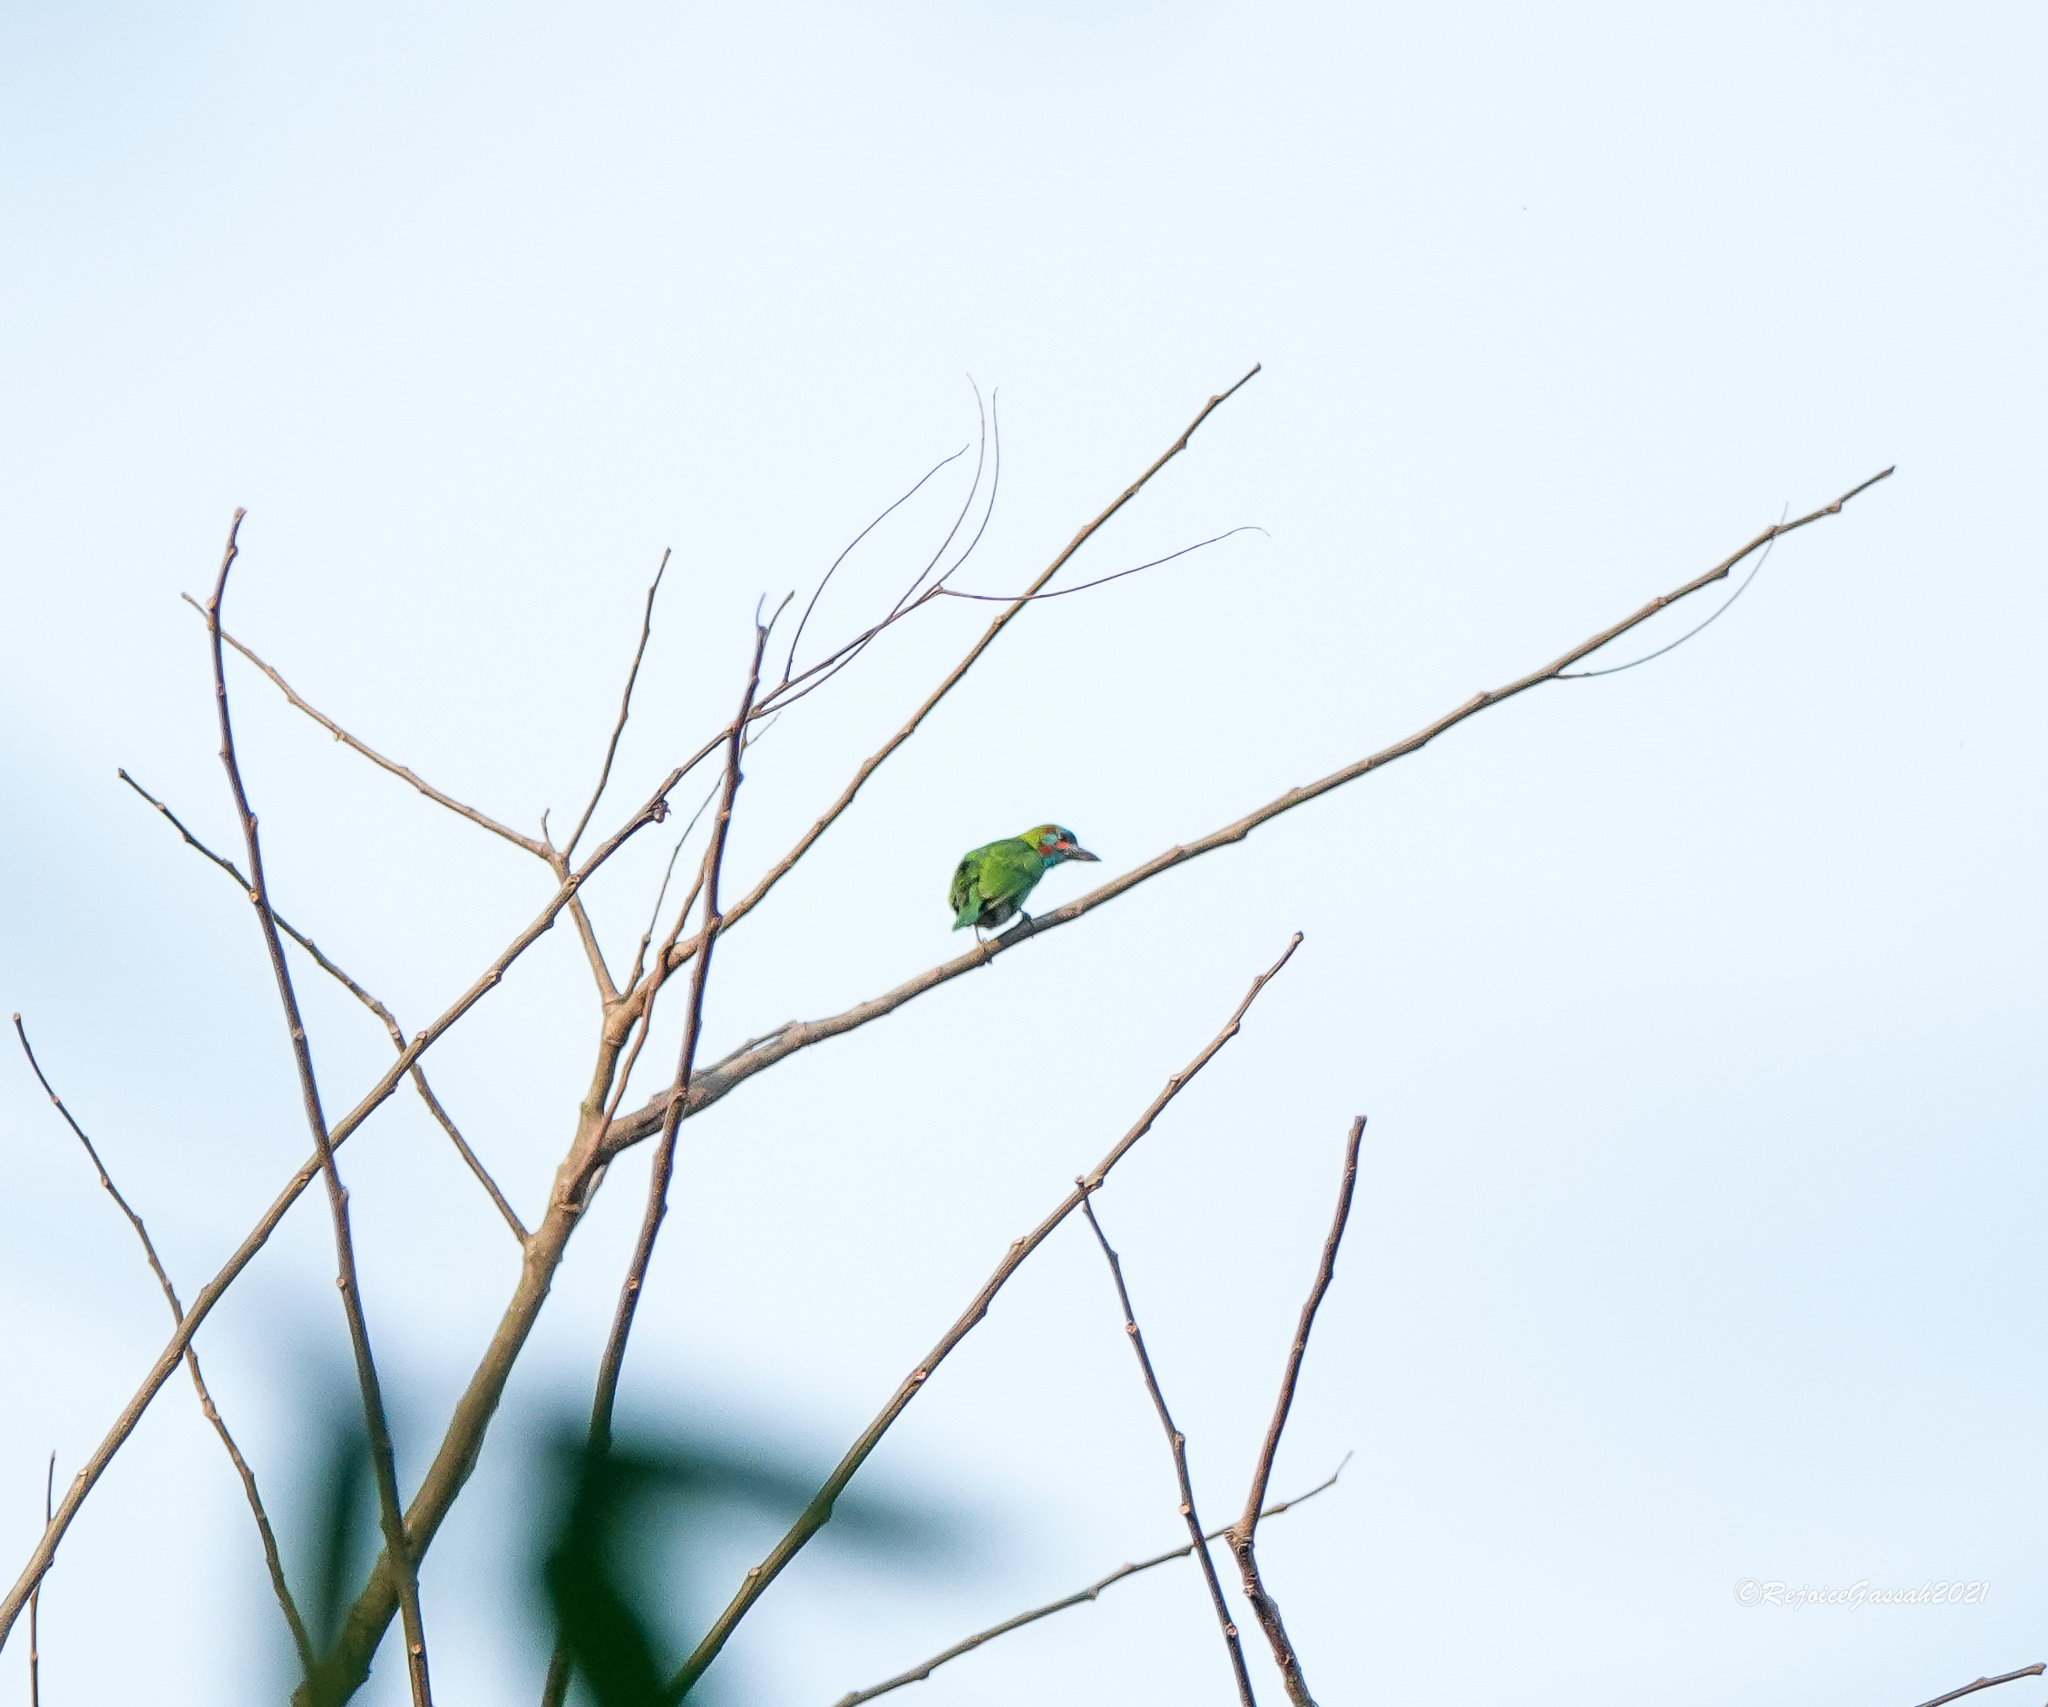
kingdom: Animalia
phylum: Chordata
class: Aves
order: Piciformes
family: Megalaimidae
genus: Psilopogon
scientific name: Psilopogon duvaucelii
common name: Blue-eared barbet
